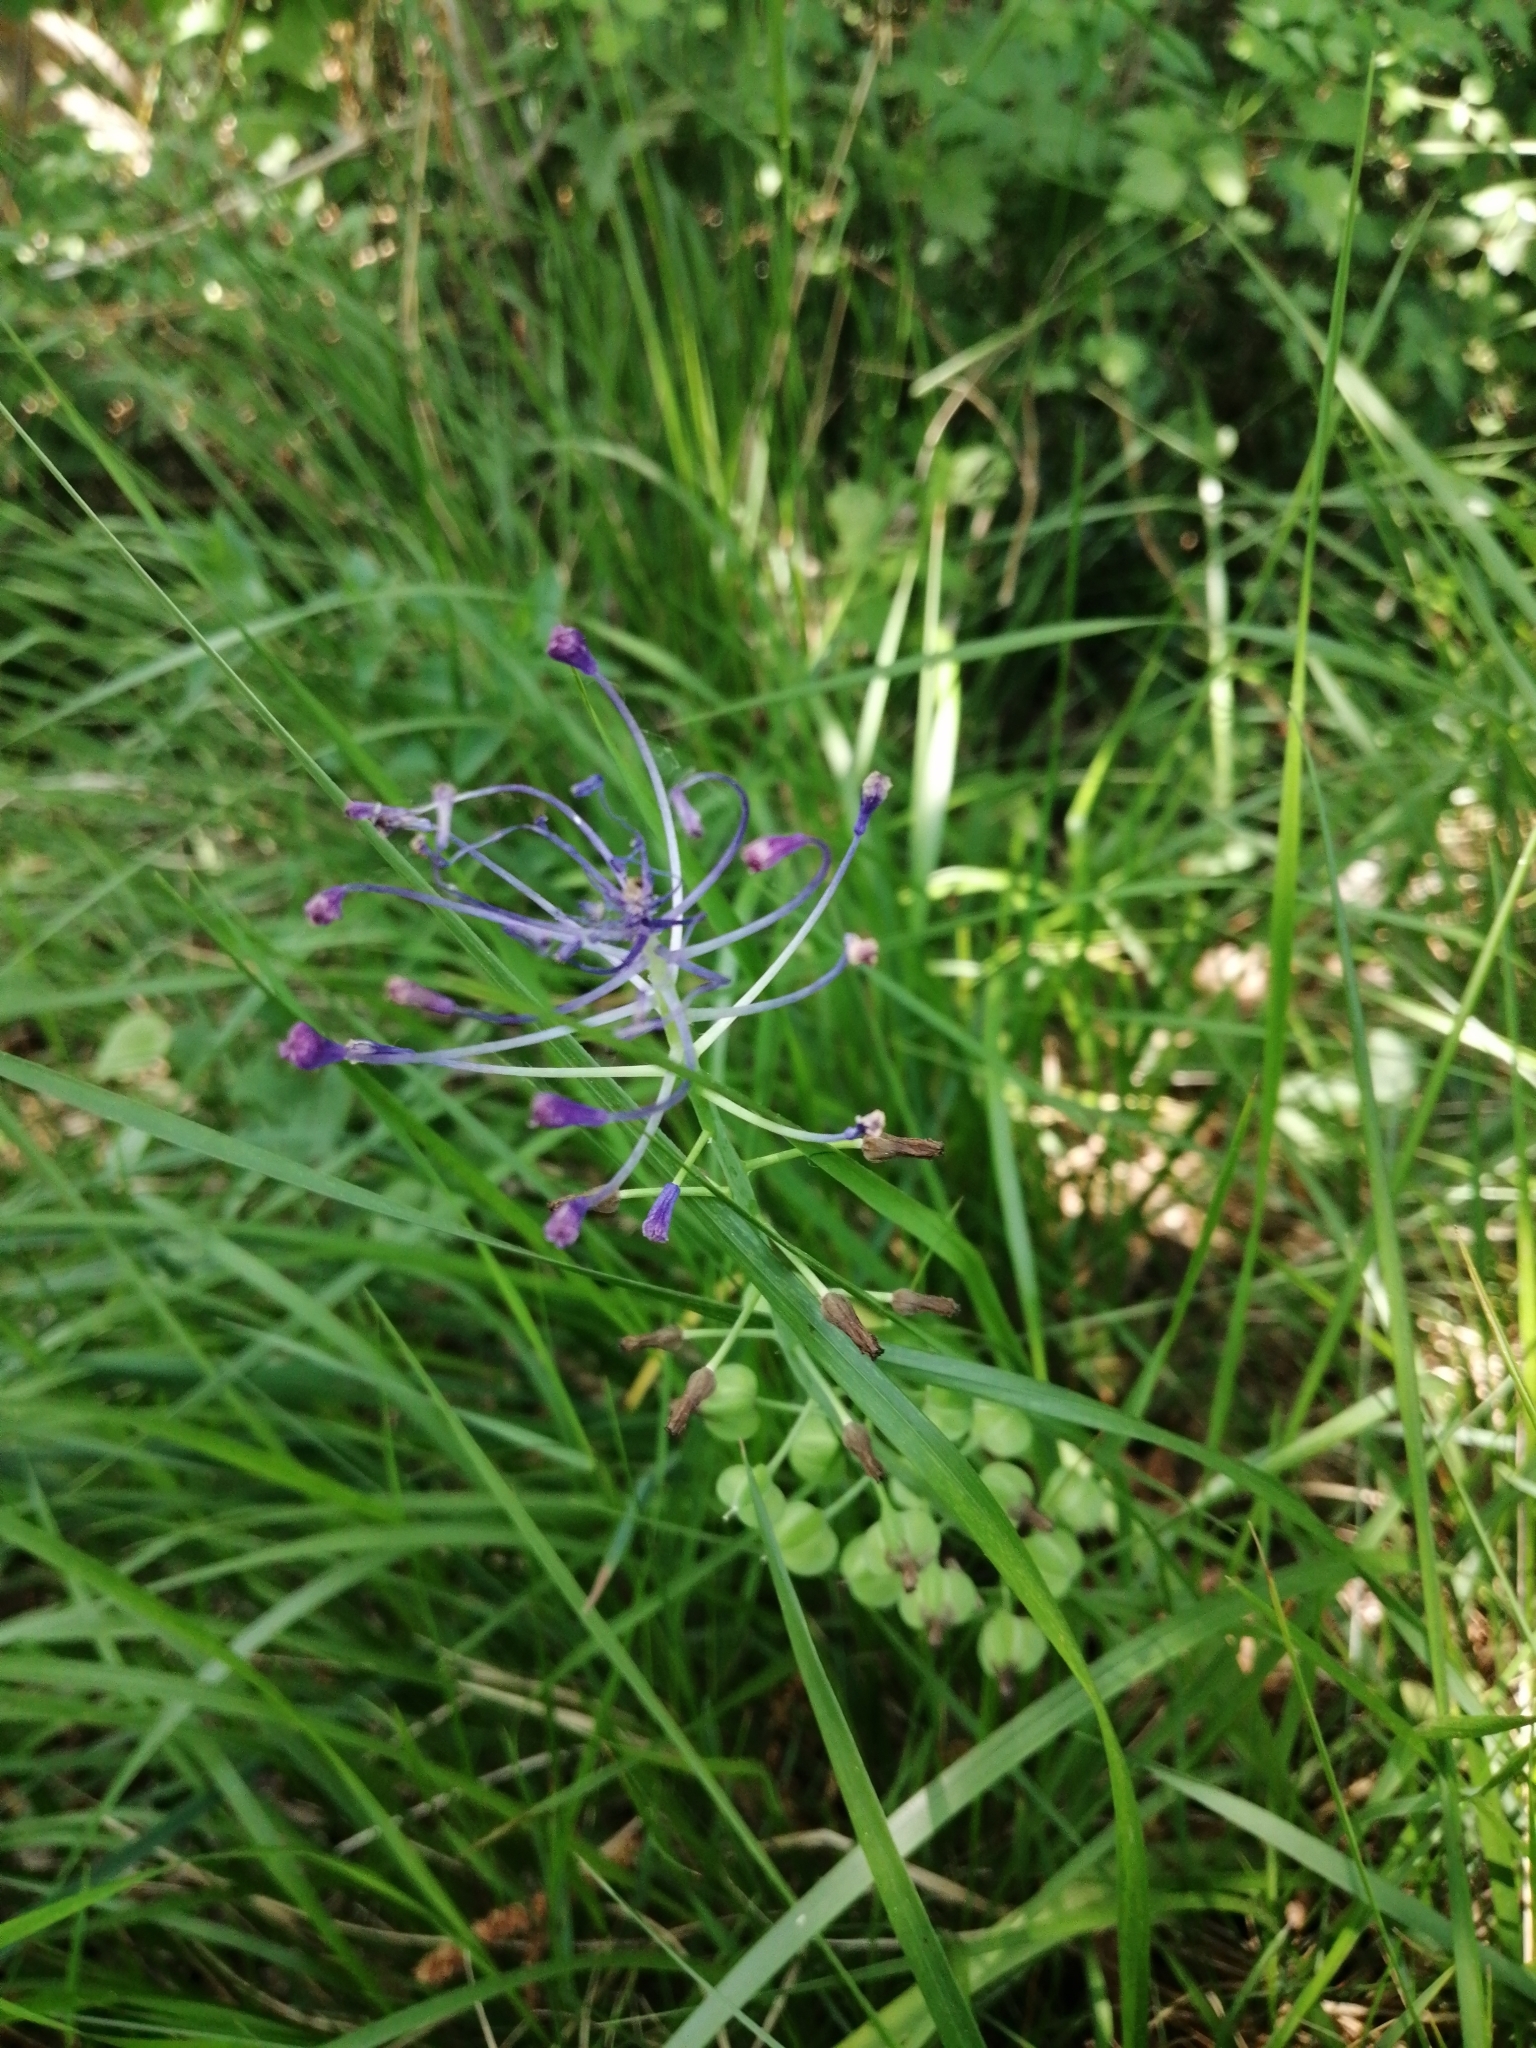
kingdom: Plantae
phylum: Tracheophyta
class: Liliopsida
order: Asparagales
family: Asparagaceae
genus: Muscari
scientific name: Muscari comosum
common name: Tassel hyacinth
